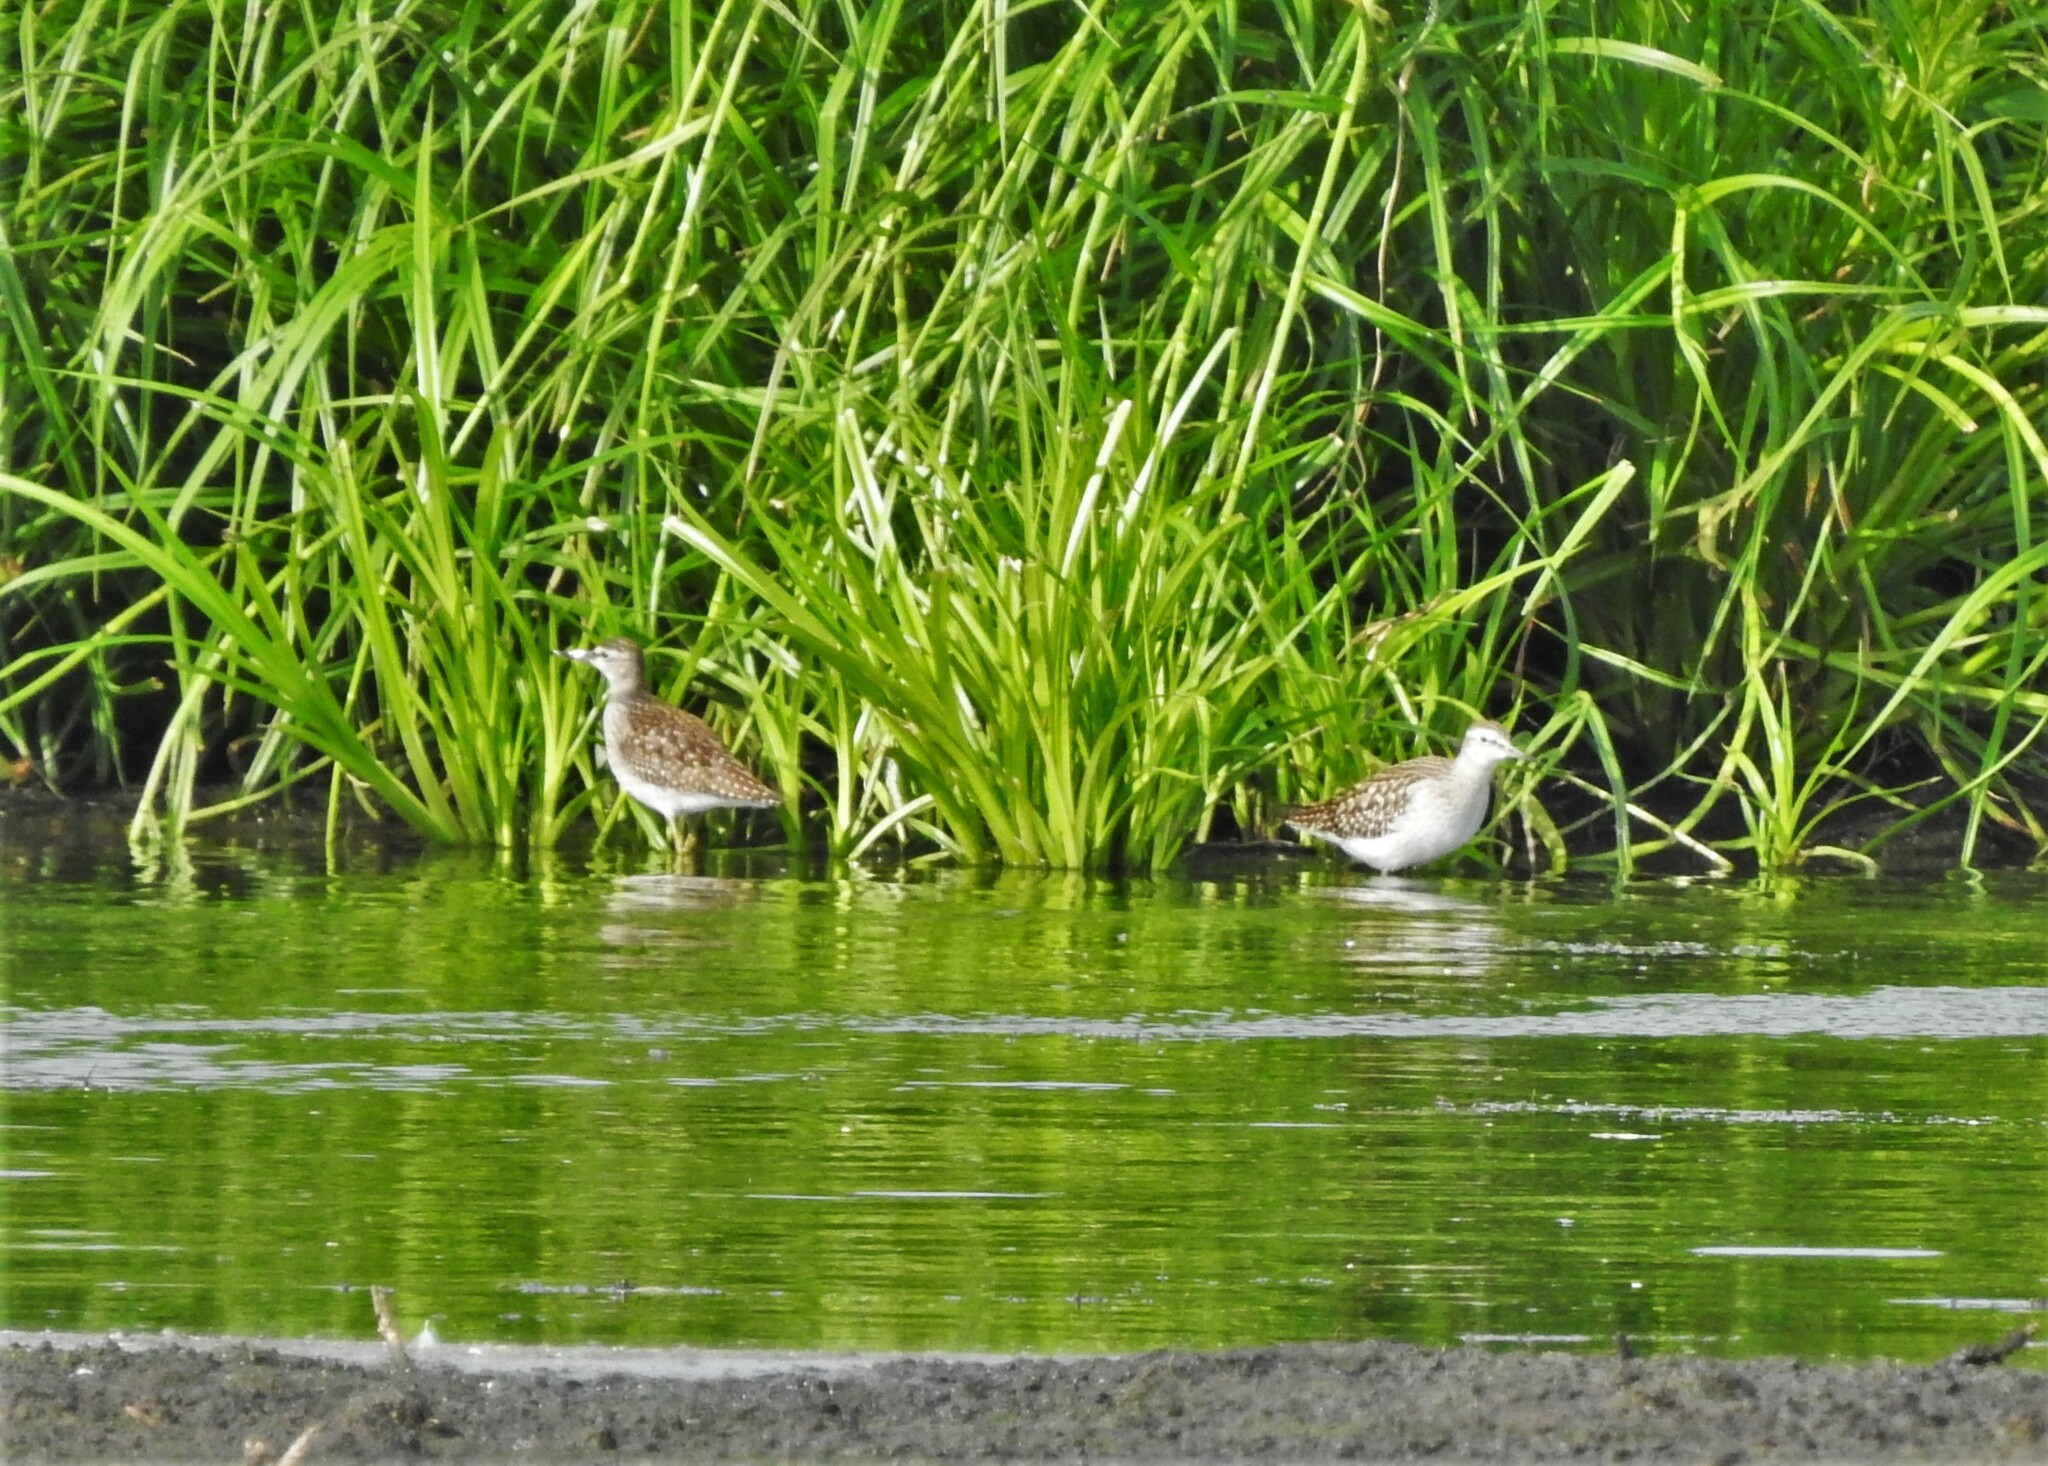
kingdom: Animalia
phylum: Chordata
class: Aves
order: Charadriiformes
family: Scolopacidae
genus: Tringa
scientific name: Tringa glareola
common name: Wood sandpiper
